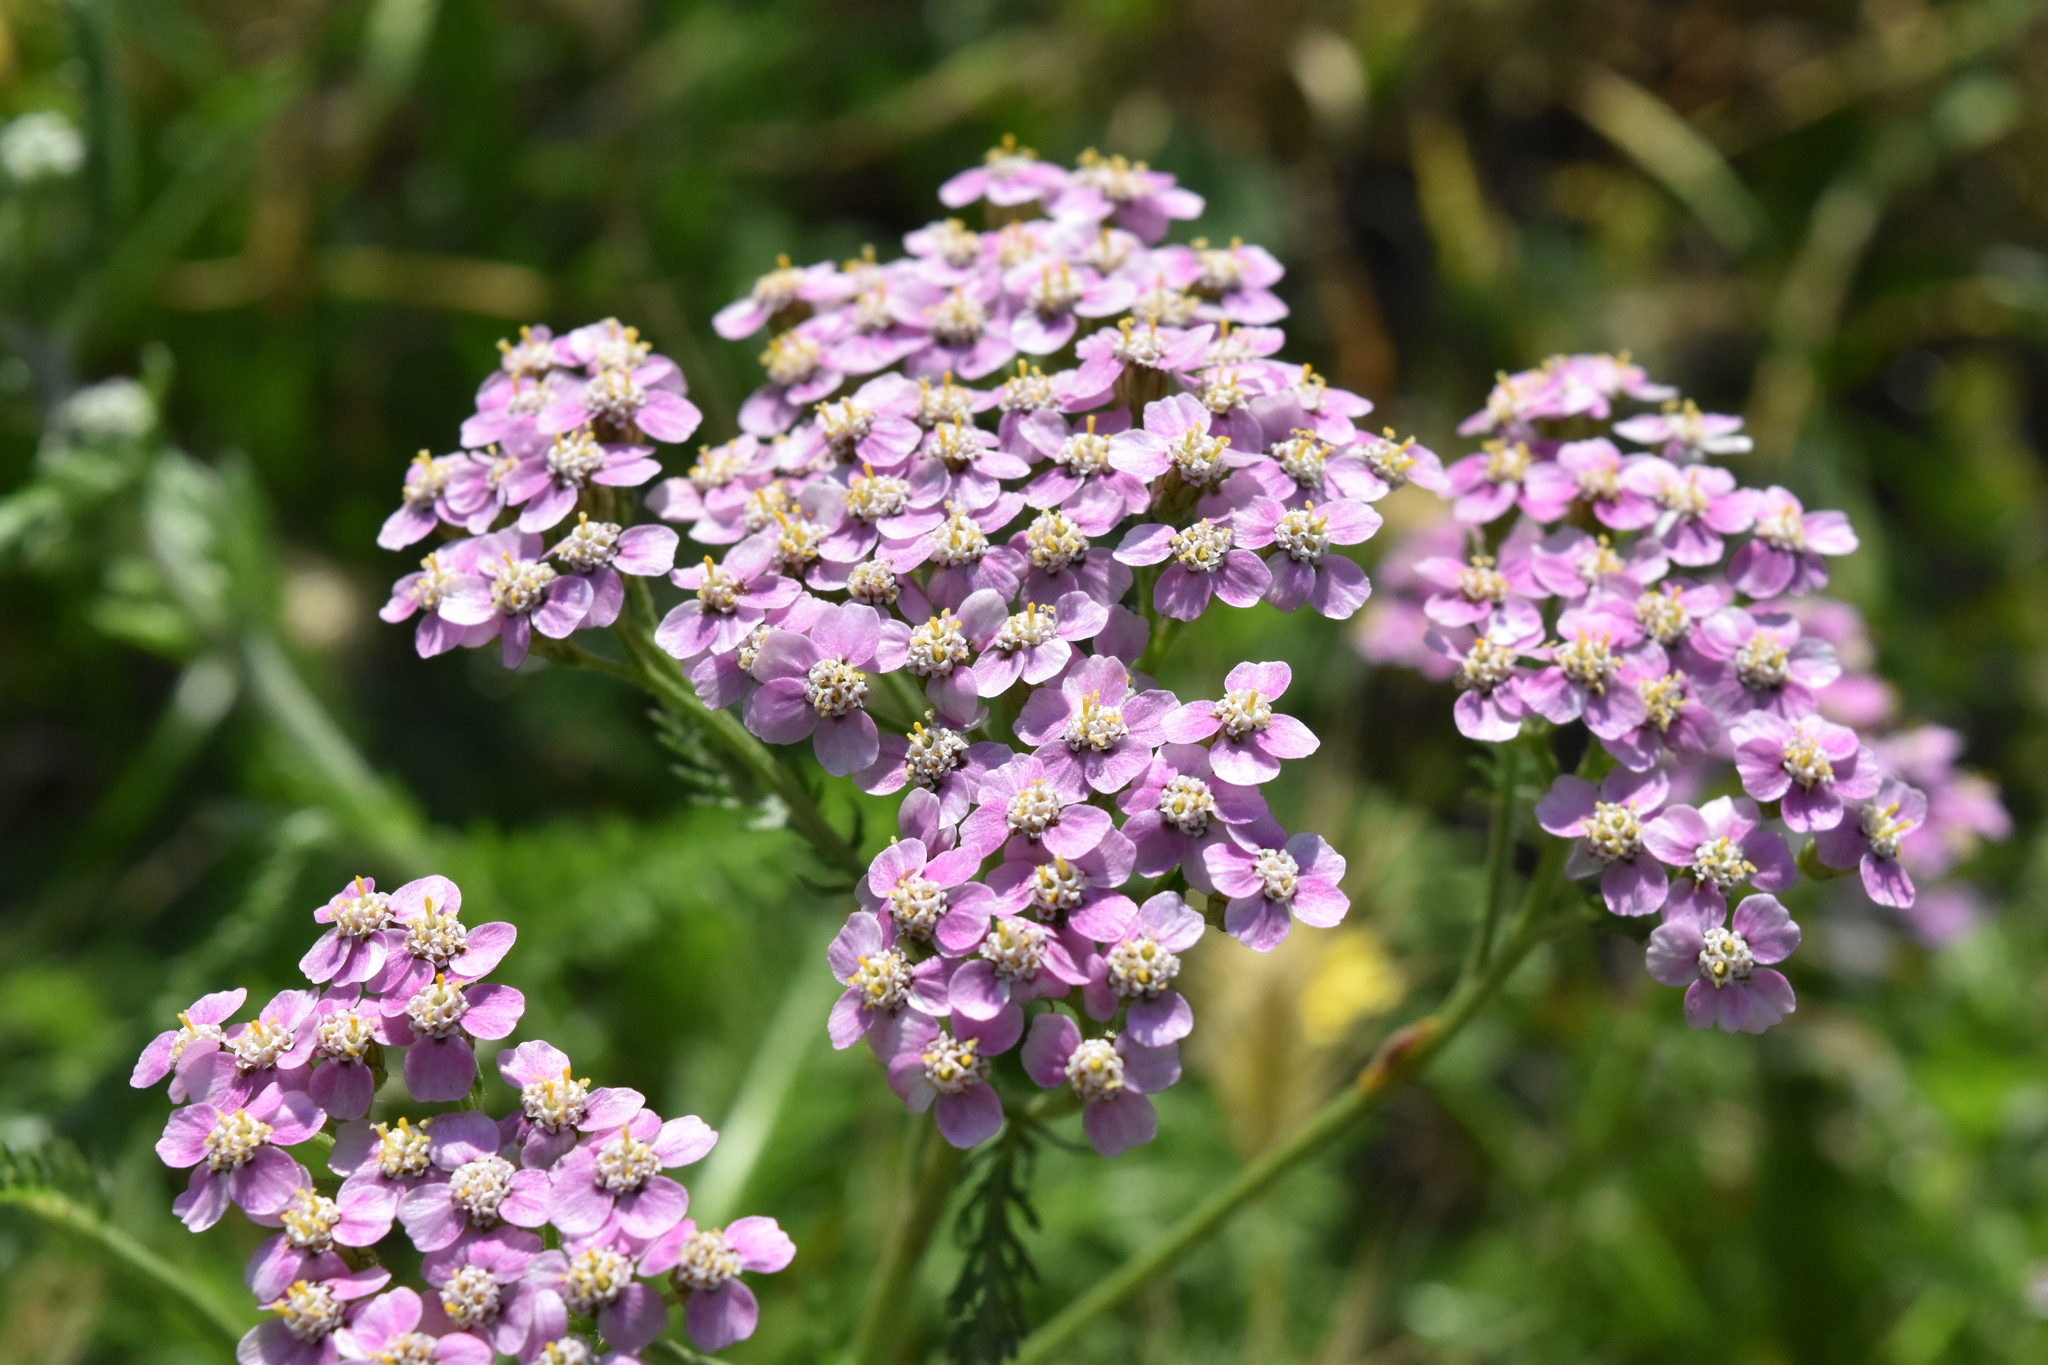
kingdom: Plantae
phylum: Tracheophyta
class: Magnoliopsida
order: Asterales
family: Asteraceae
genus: Achillea
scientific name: Achillea millefolium
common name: Yarrow
